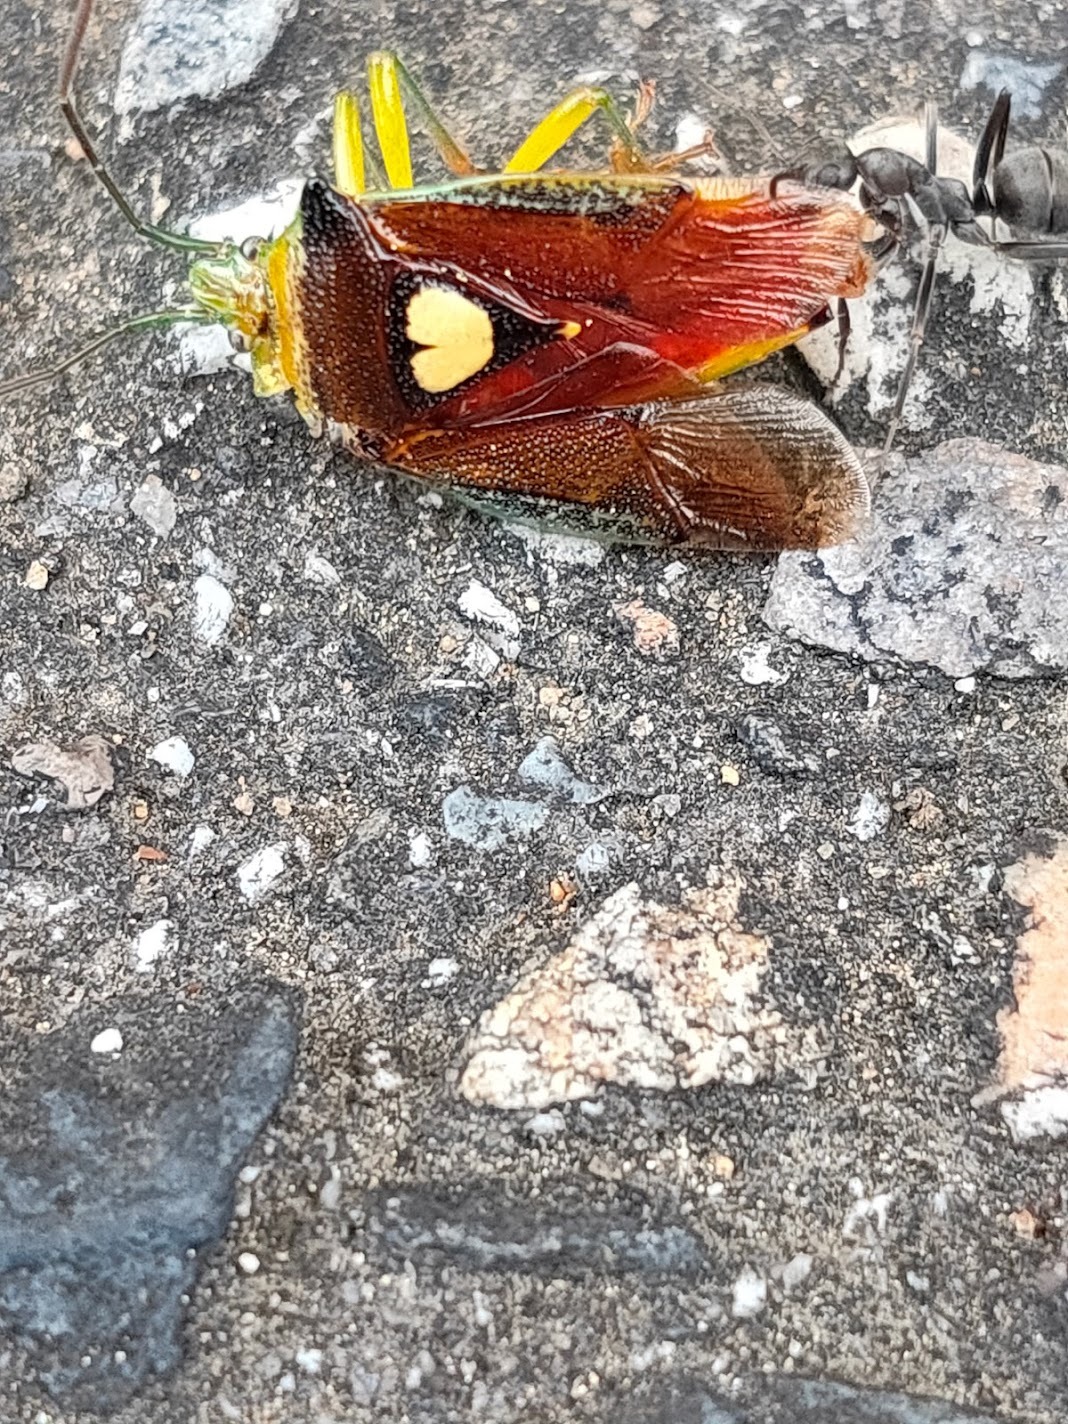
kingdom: Animalia
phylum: Arthropoda
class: Insecta
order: Hemiptera
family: Acanthosomatidae
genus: Sastragala
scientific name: Sastragala esakii
